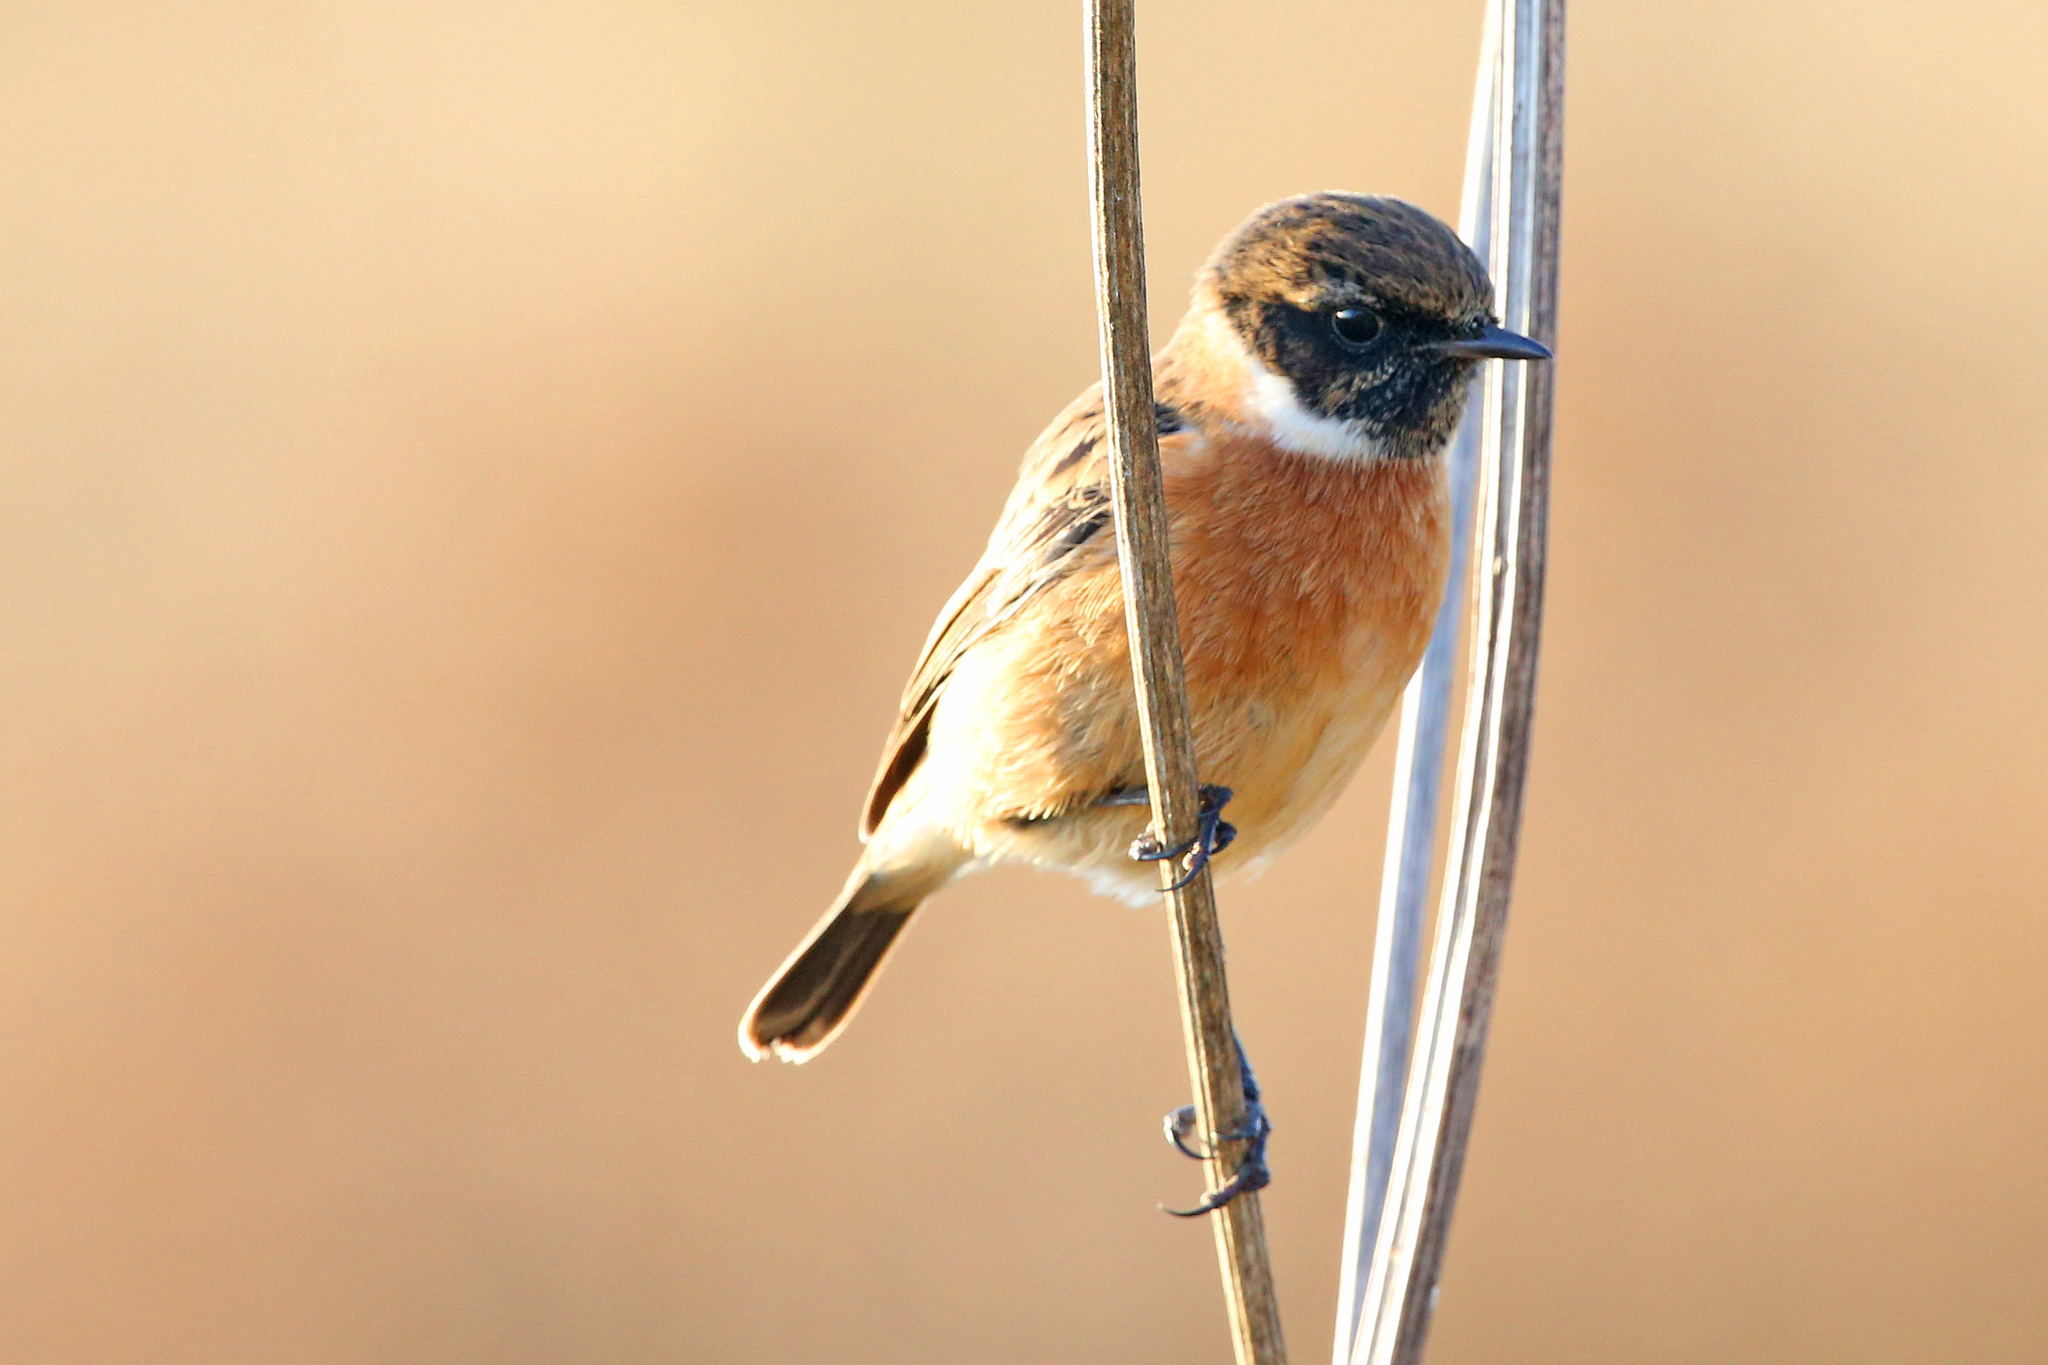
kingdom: Animalia
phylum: Chordata
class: Aves
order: Passeriformes
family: Muscicapidae
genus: Saxicola
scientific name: Saxicola rubicola
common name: European stonechat
